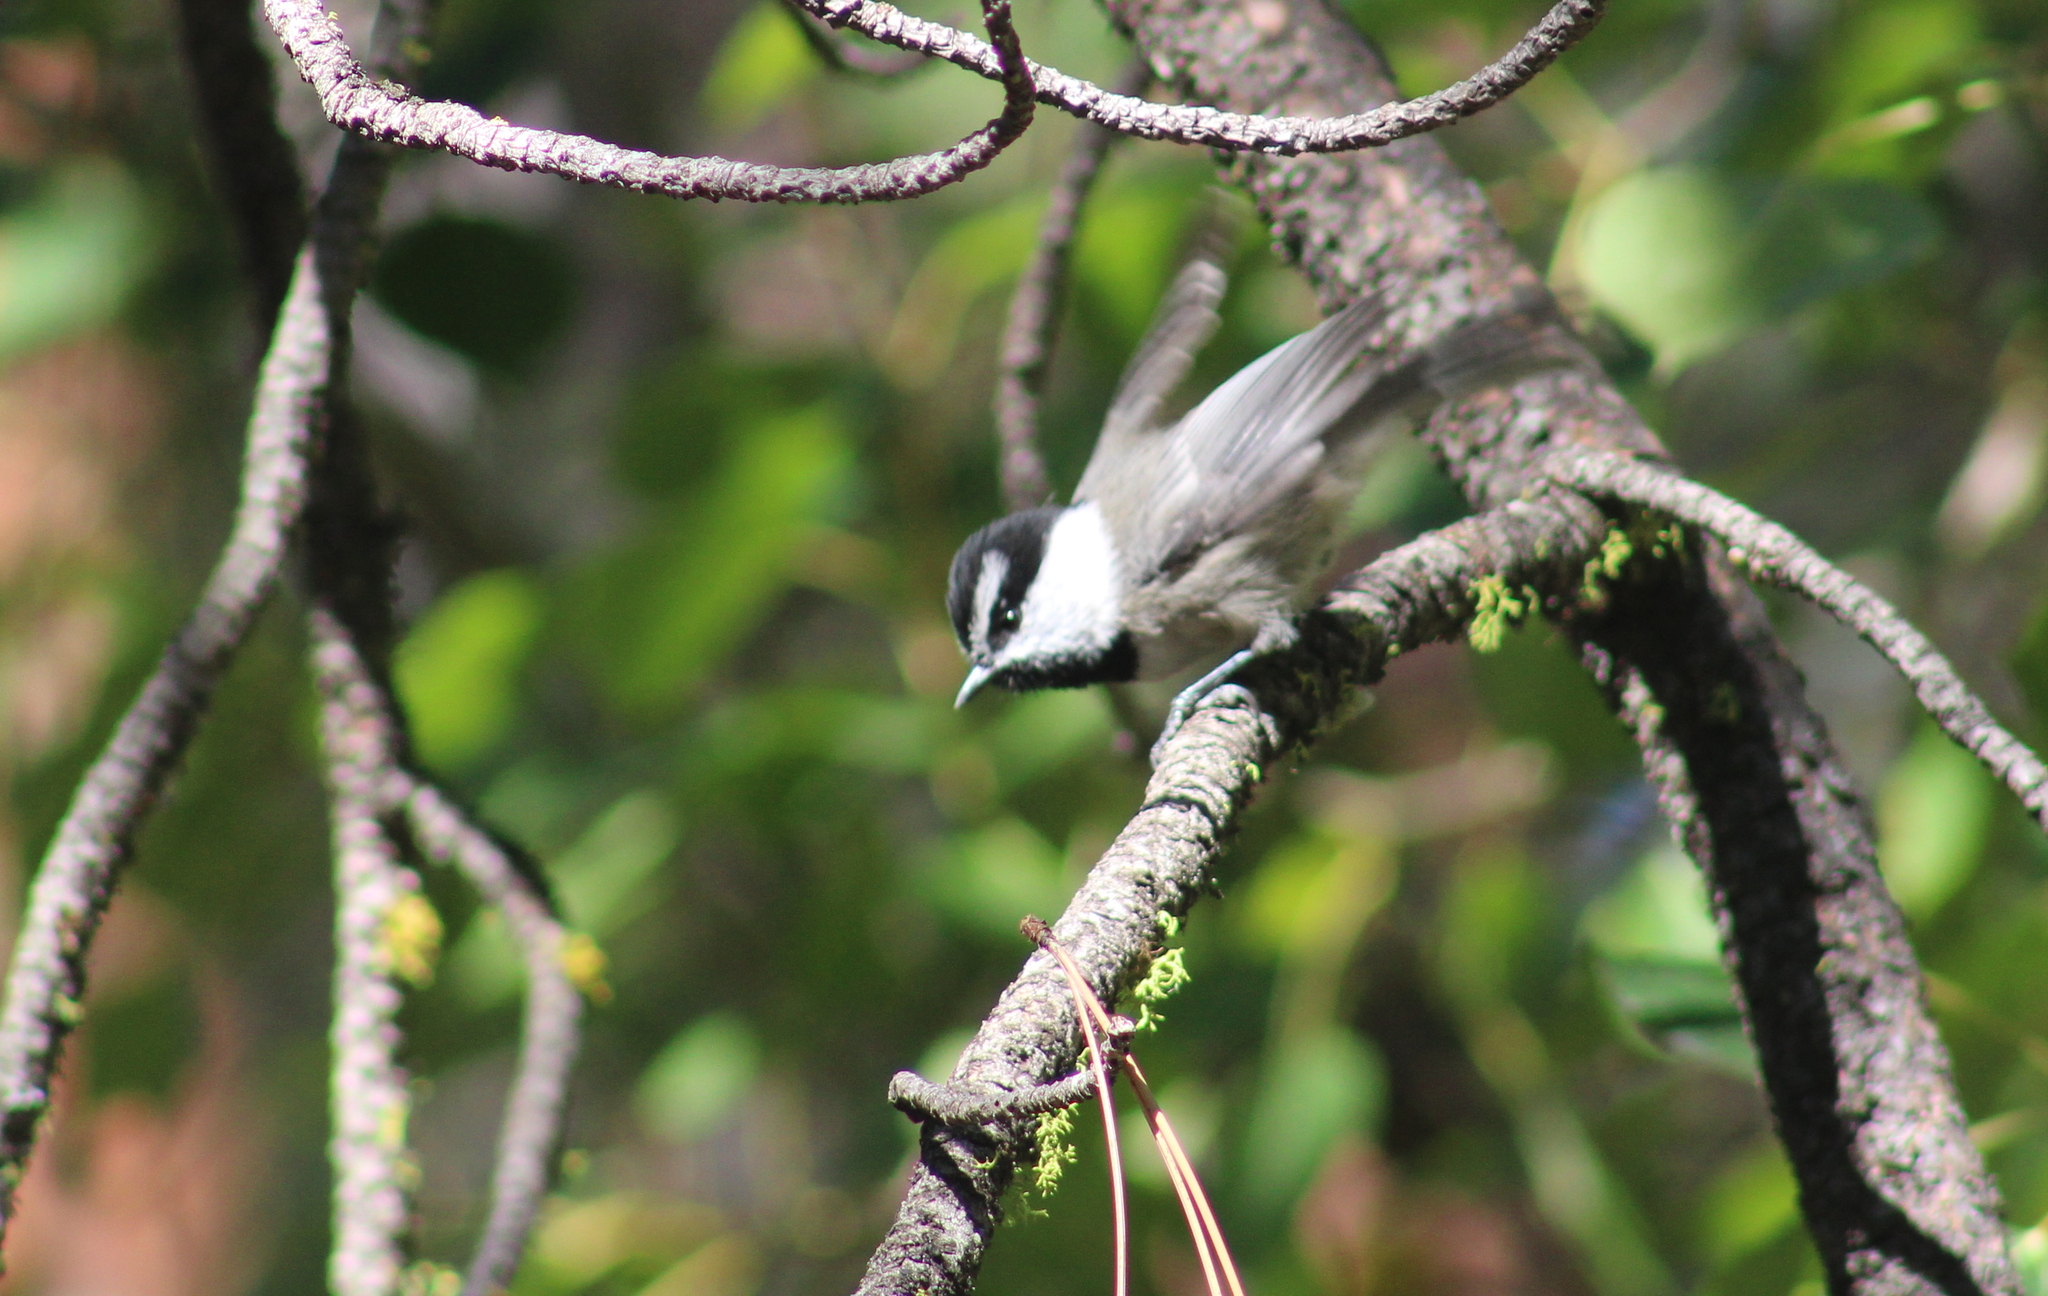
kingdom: Animalia
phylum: Chordata
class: Aves
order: Passeriformes
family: Paridae
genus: Poecile
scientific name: Poecile gambeli
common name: Mountain chickadee
